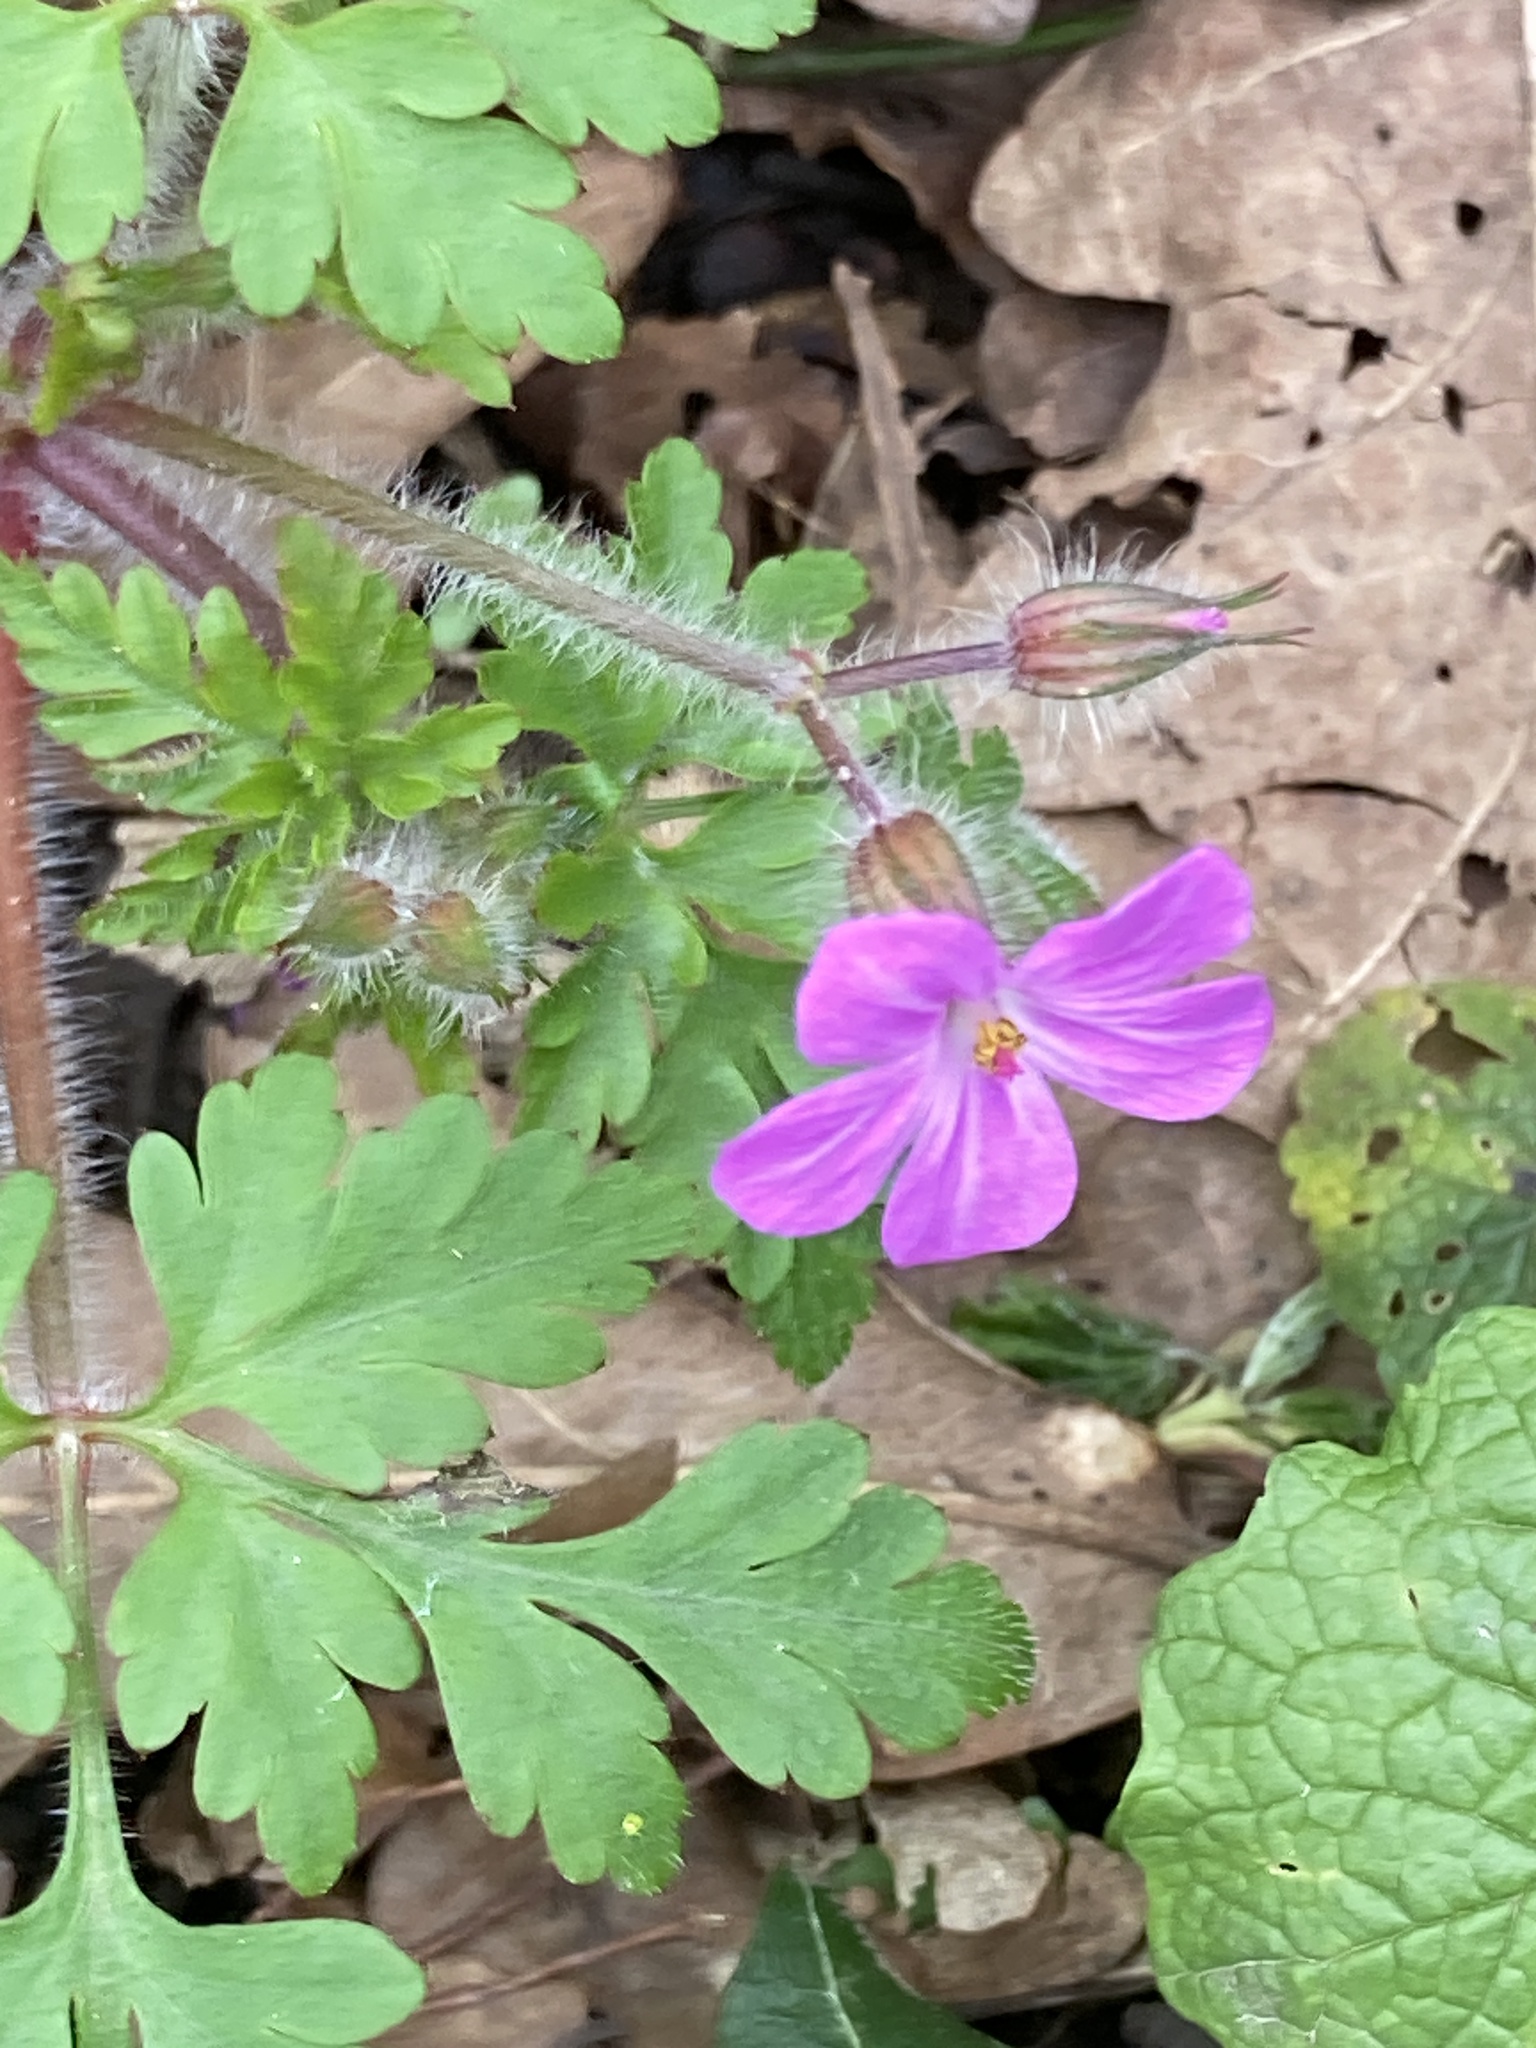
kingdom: Plantae
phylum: Tracheophyta
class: Magnoliopsida
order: Geraniales
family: Geraniaceae
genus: Geranium
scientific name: Geranium robertianum
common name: Herb-robert
